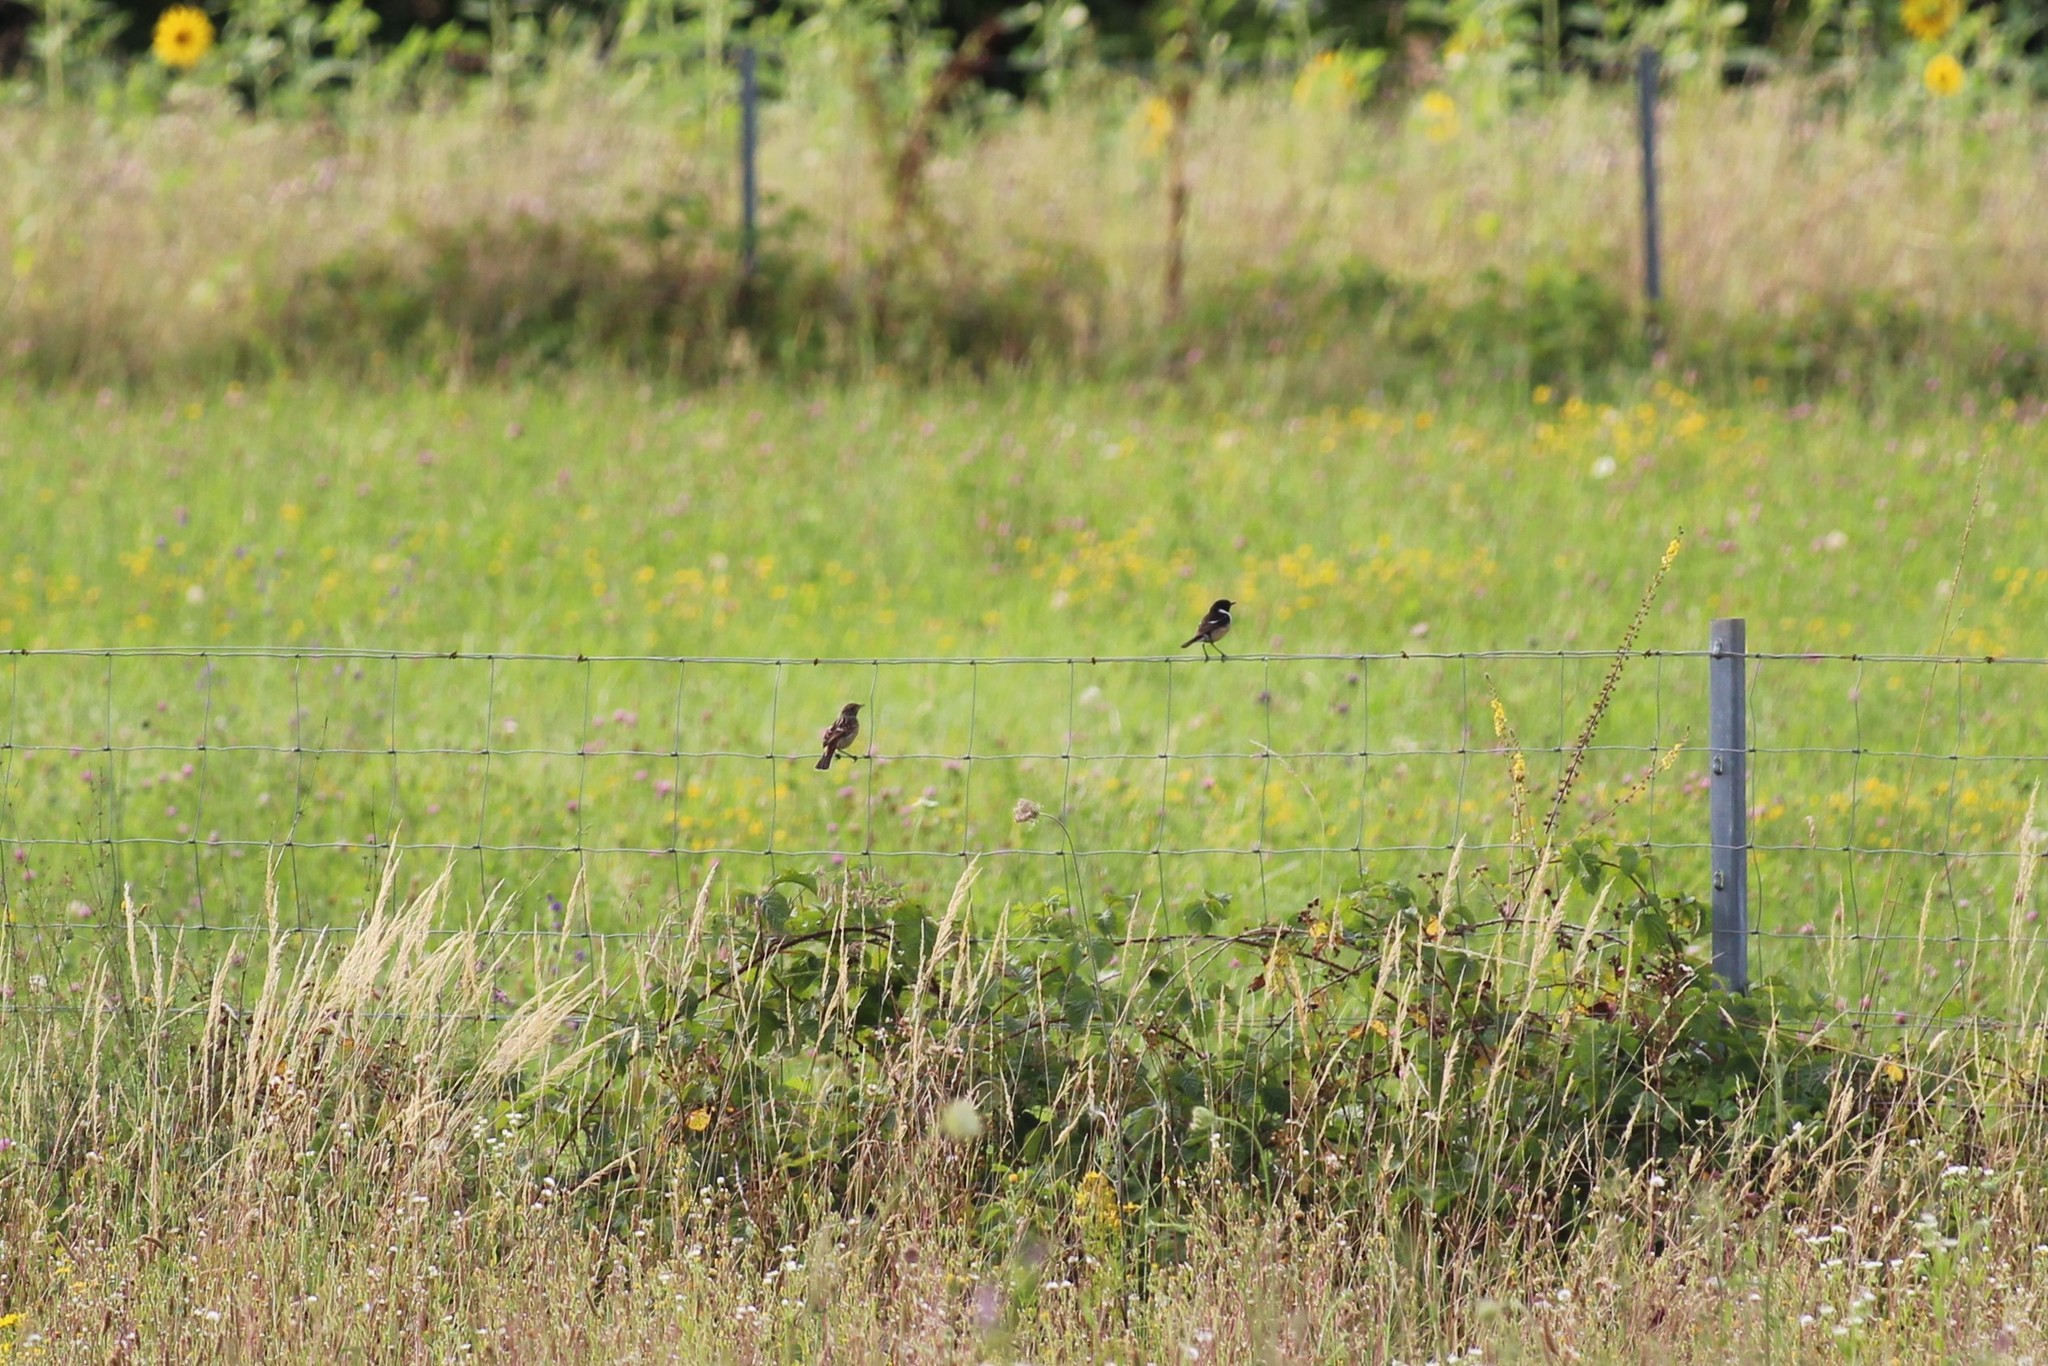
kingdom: Animalia
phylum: Chordata
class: Aves
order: Passeriformes
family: Muscicapidae
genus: Saxicola
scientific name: Saxicola rubicola
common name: European stonechat
